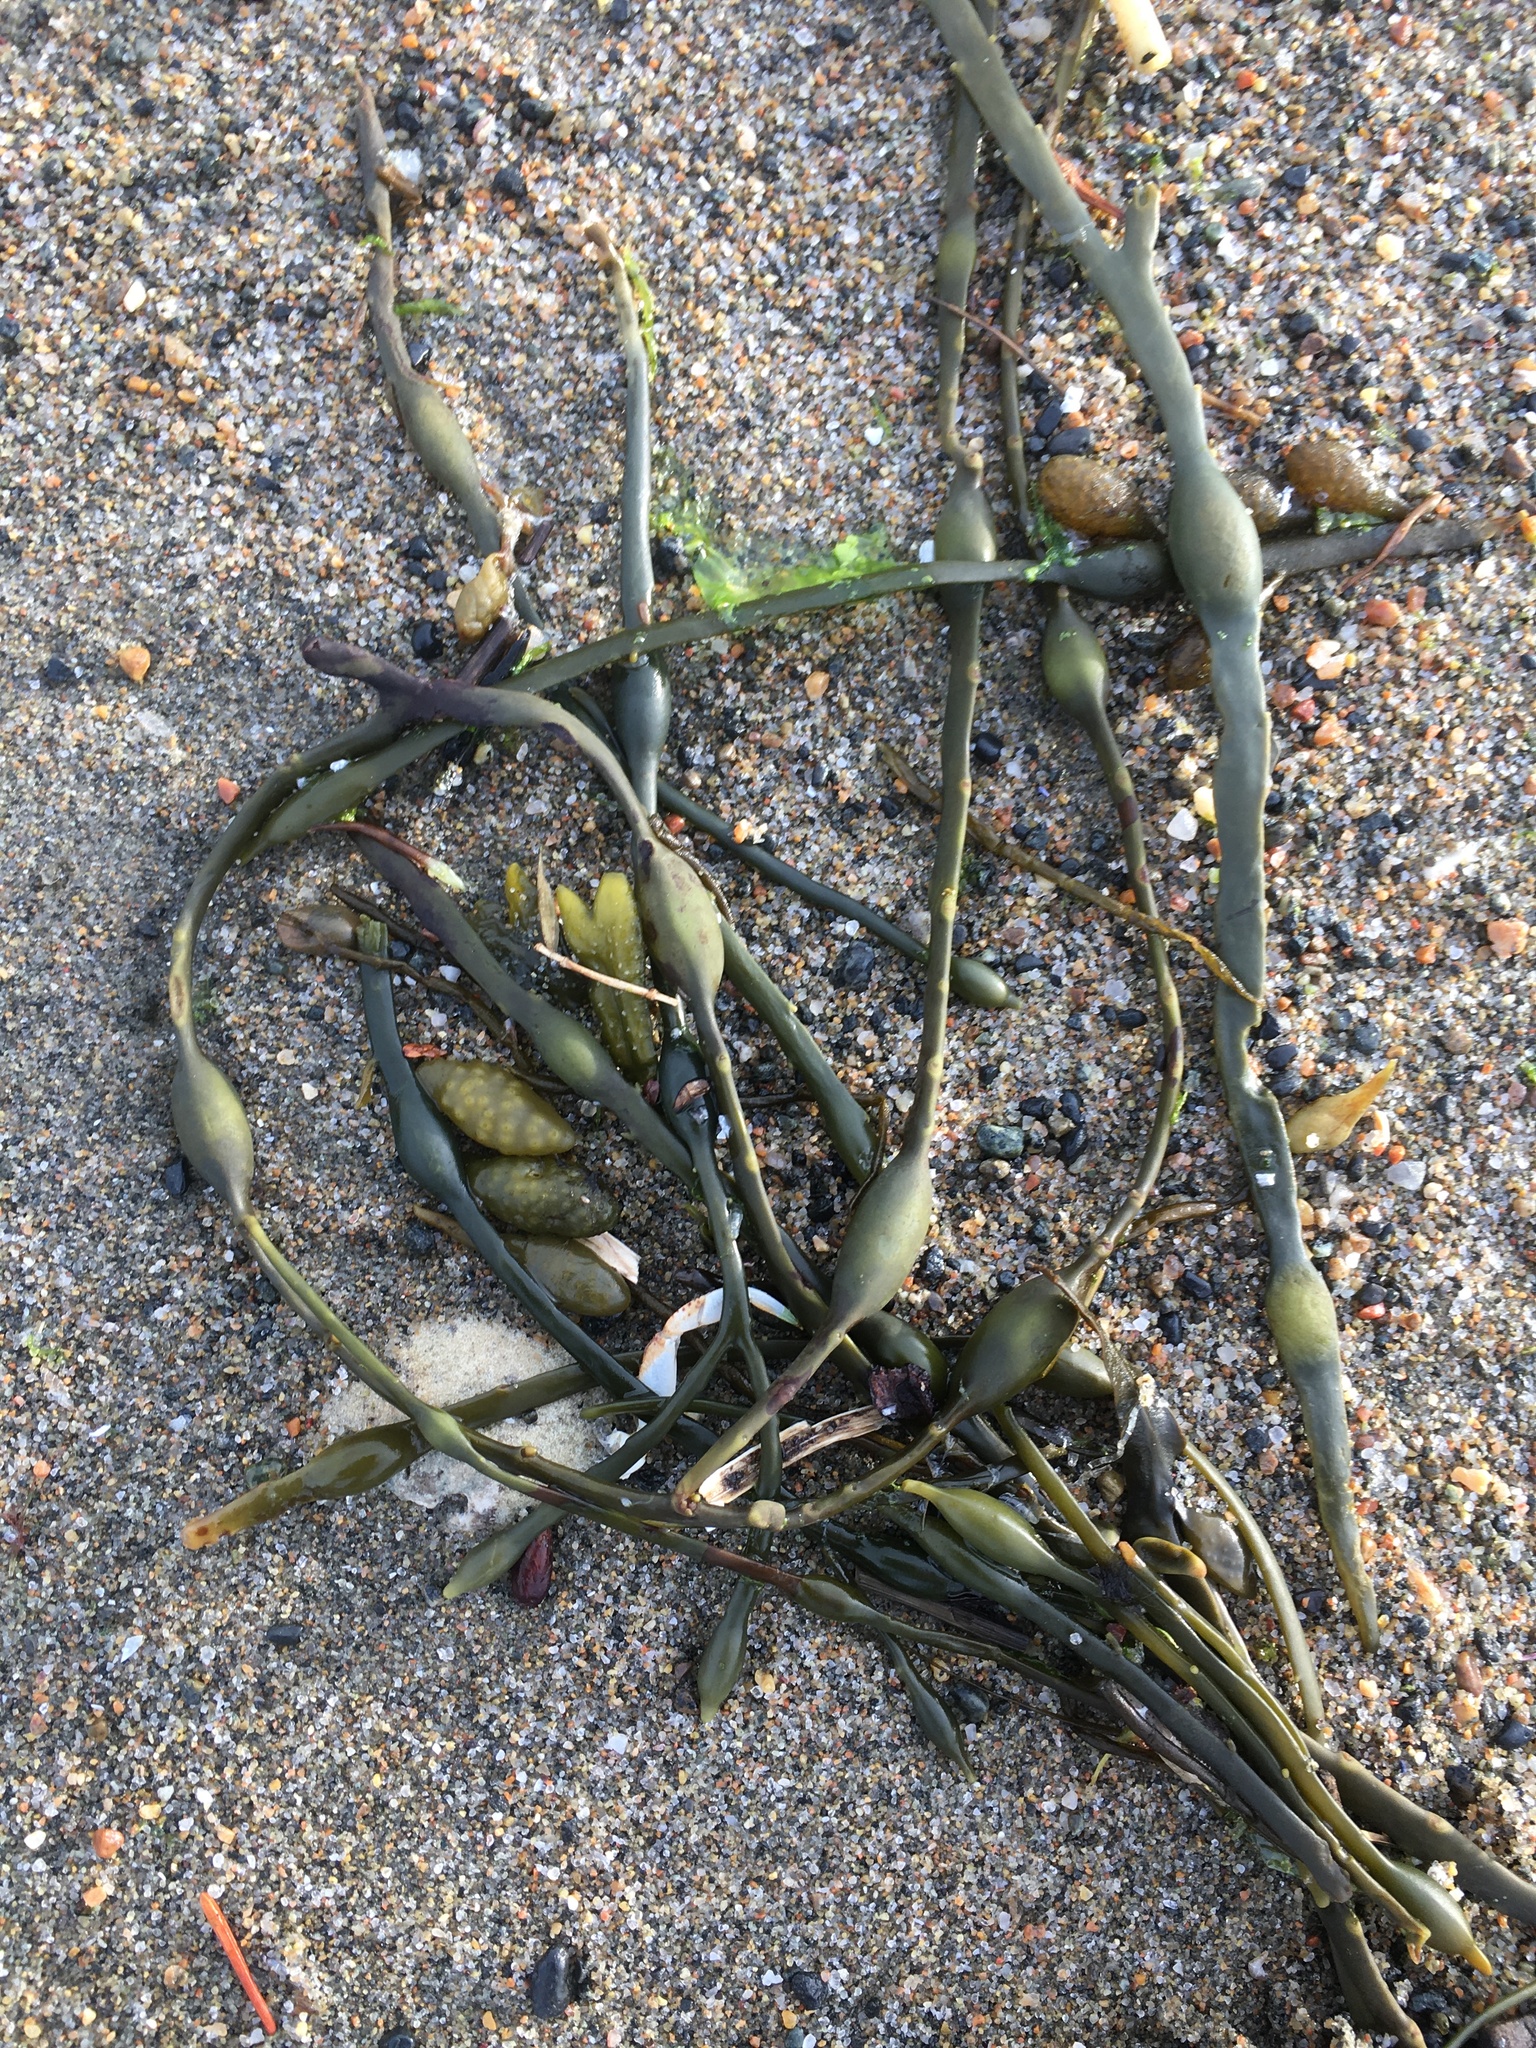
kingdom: Chromista
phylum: Ochrophyta
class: Phaeophyceae
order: Fucales
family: Fucaceae
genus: Ascophyllum
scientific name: Ascophyllum nodosum
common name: Knotted wrack
